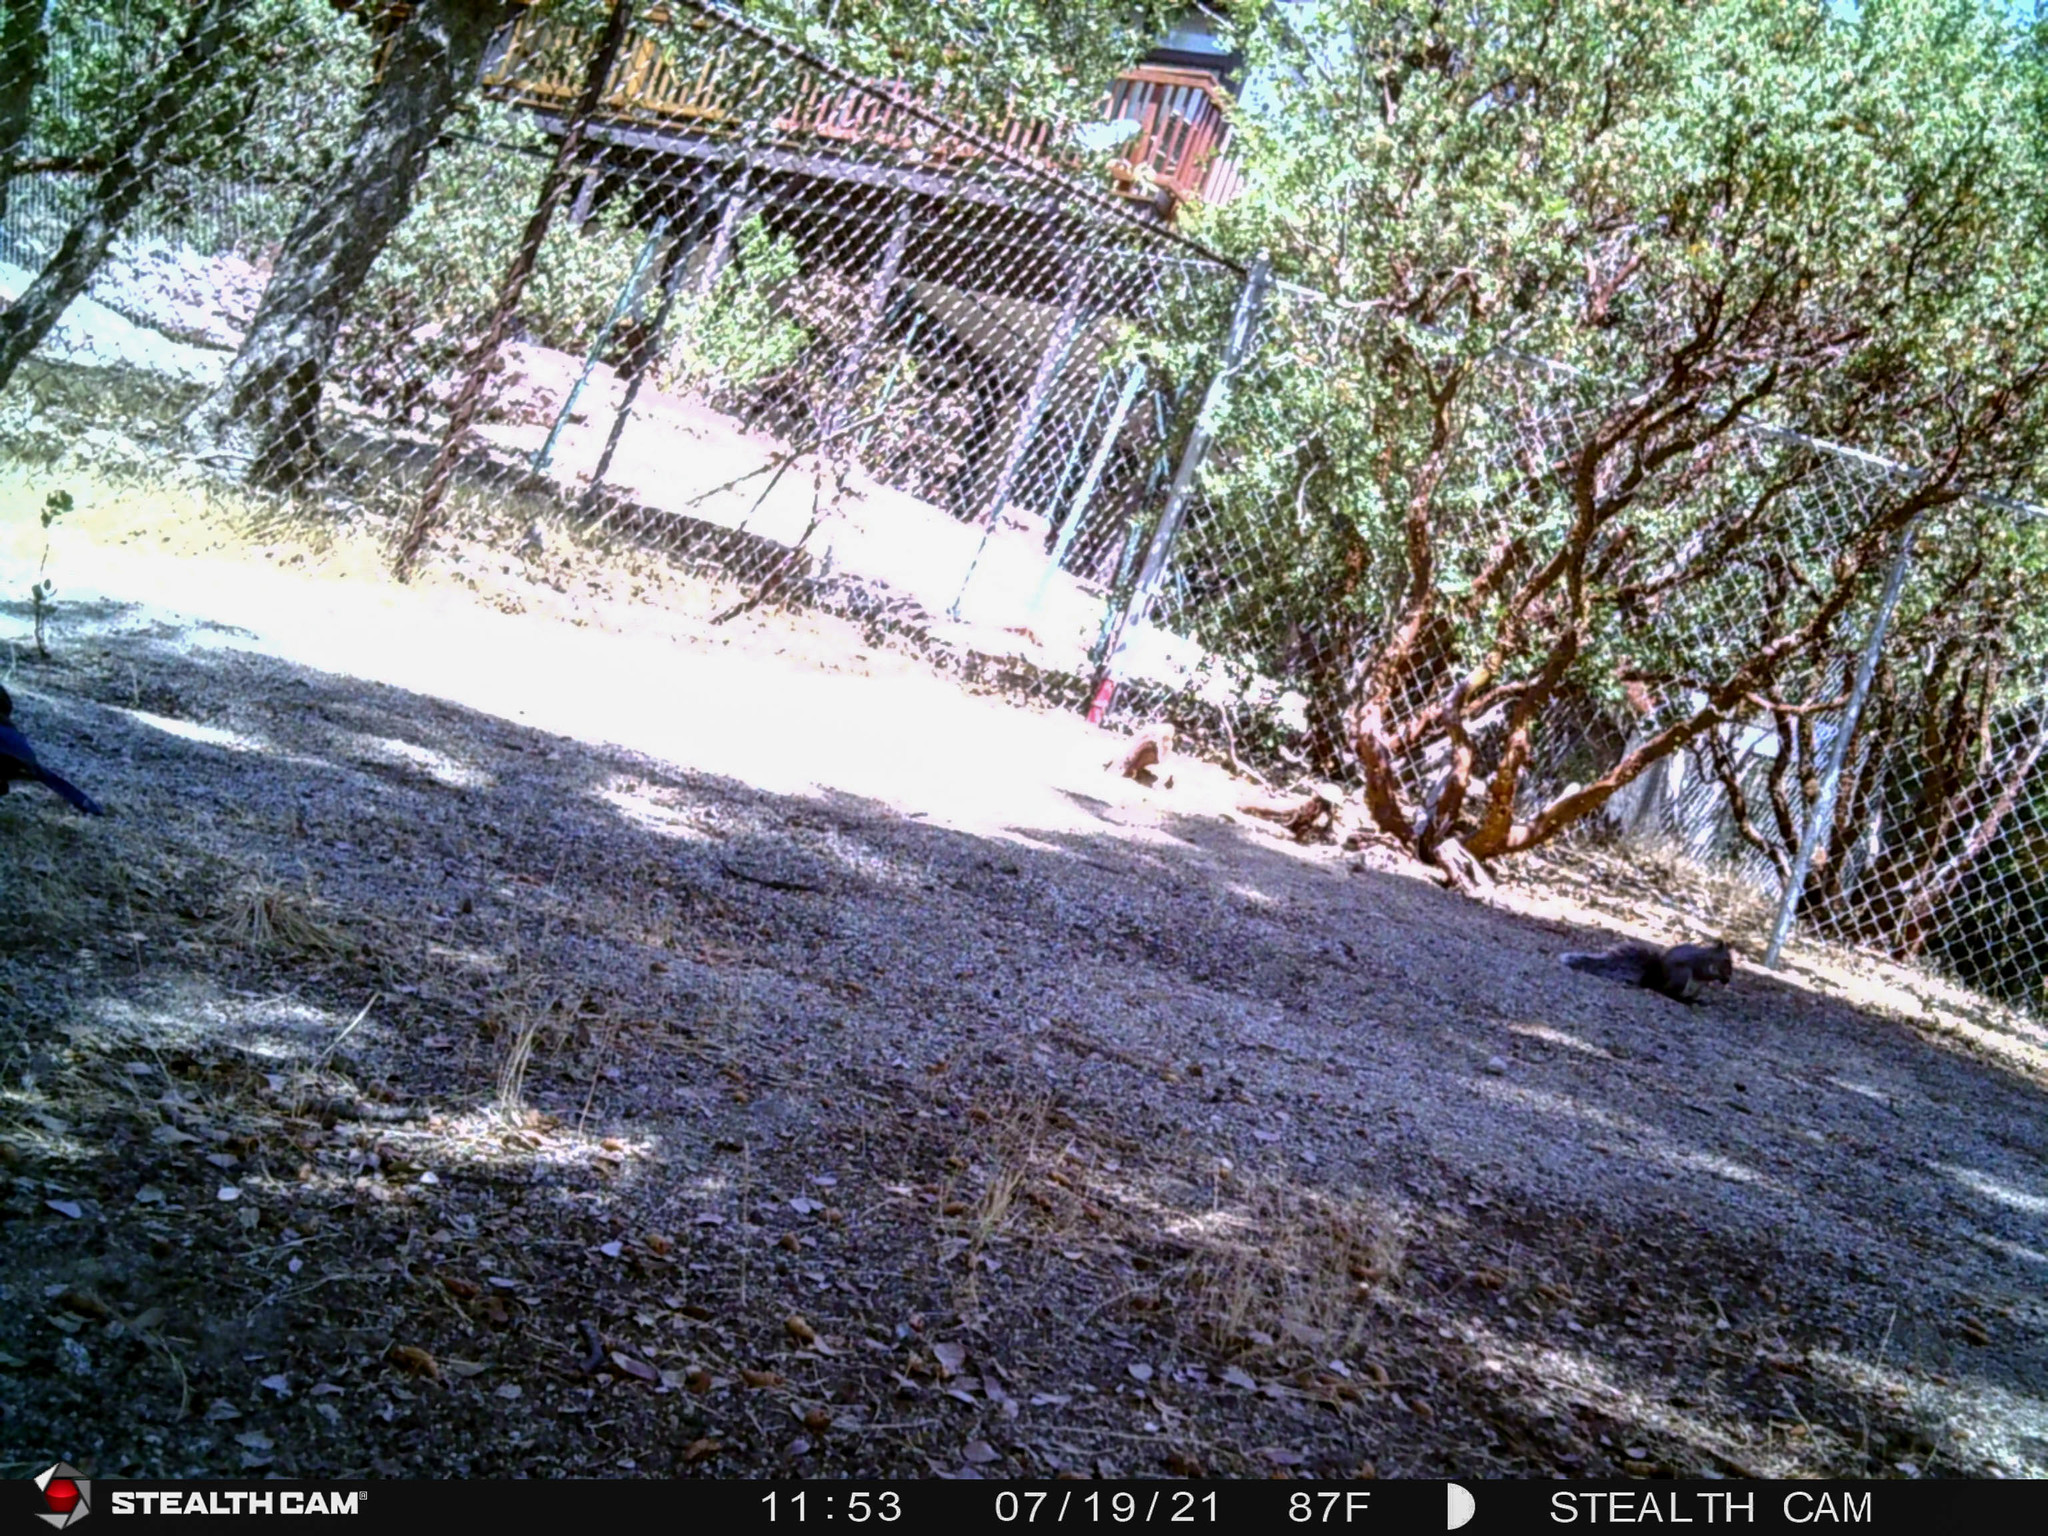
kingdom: Animalia
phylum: Chordata
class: Aves
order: Passeriformes
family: Corvidae
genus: Cyanocitta
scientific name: Cyanocitta stelleri
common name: Steller's jay
